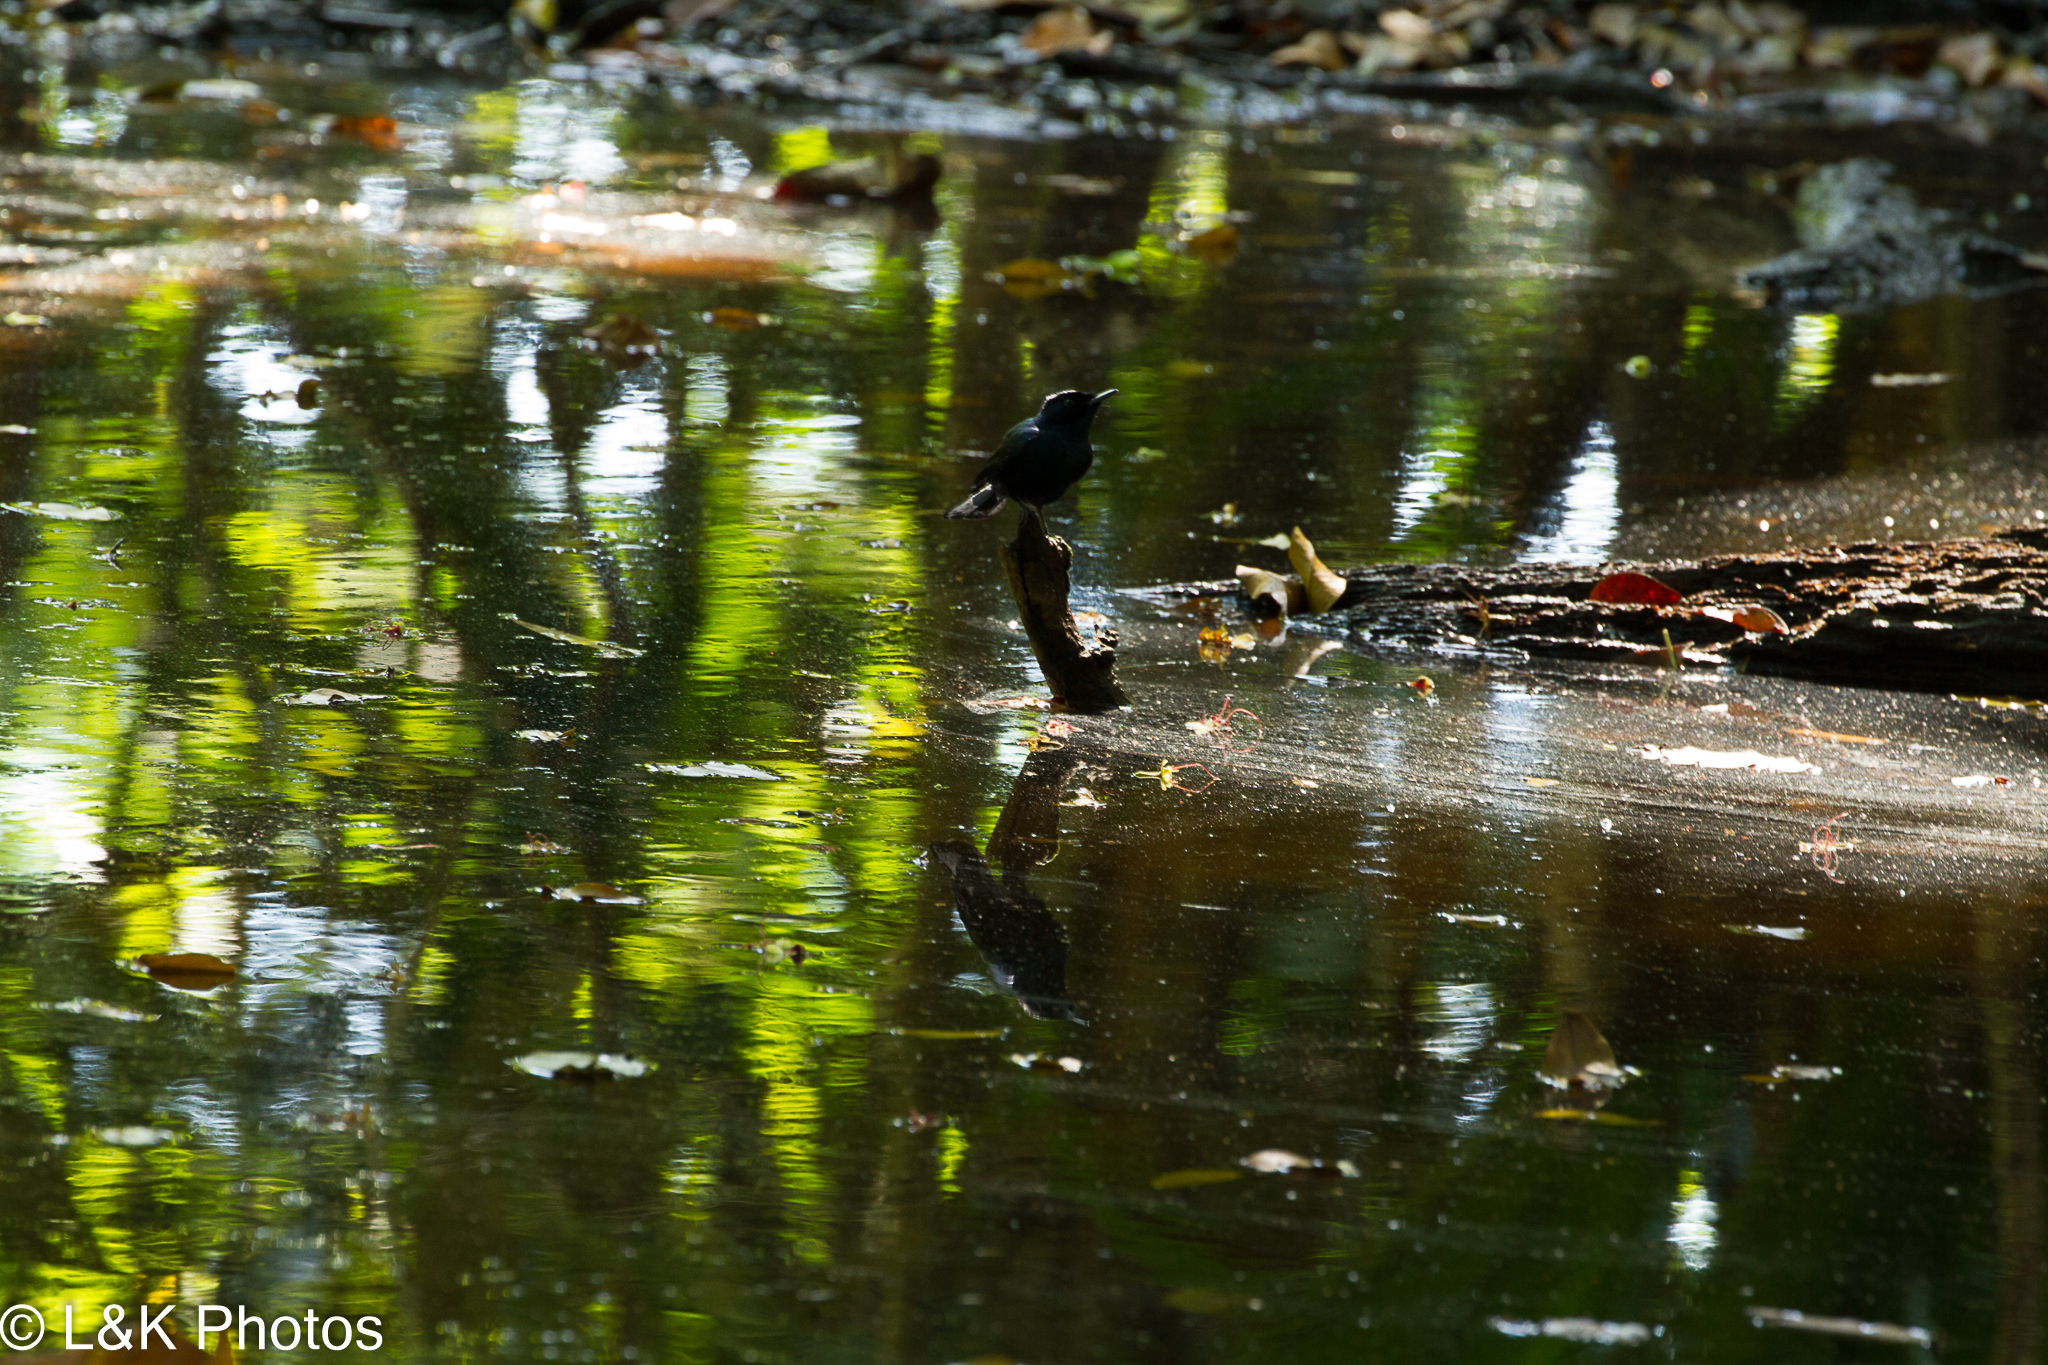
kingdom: Animalia
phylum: Chordata
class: Aves
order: Passeriformes
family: Monarchidae
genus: Myiagra
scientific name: Myiagra alecto
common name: Shining flycatcher
